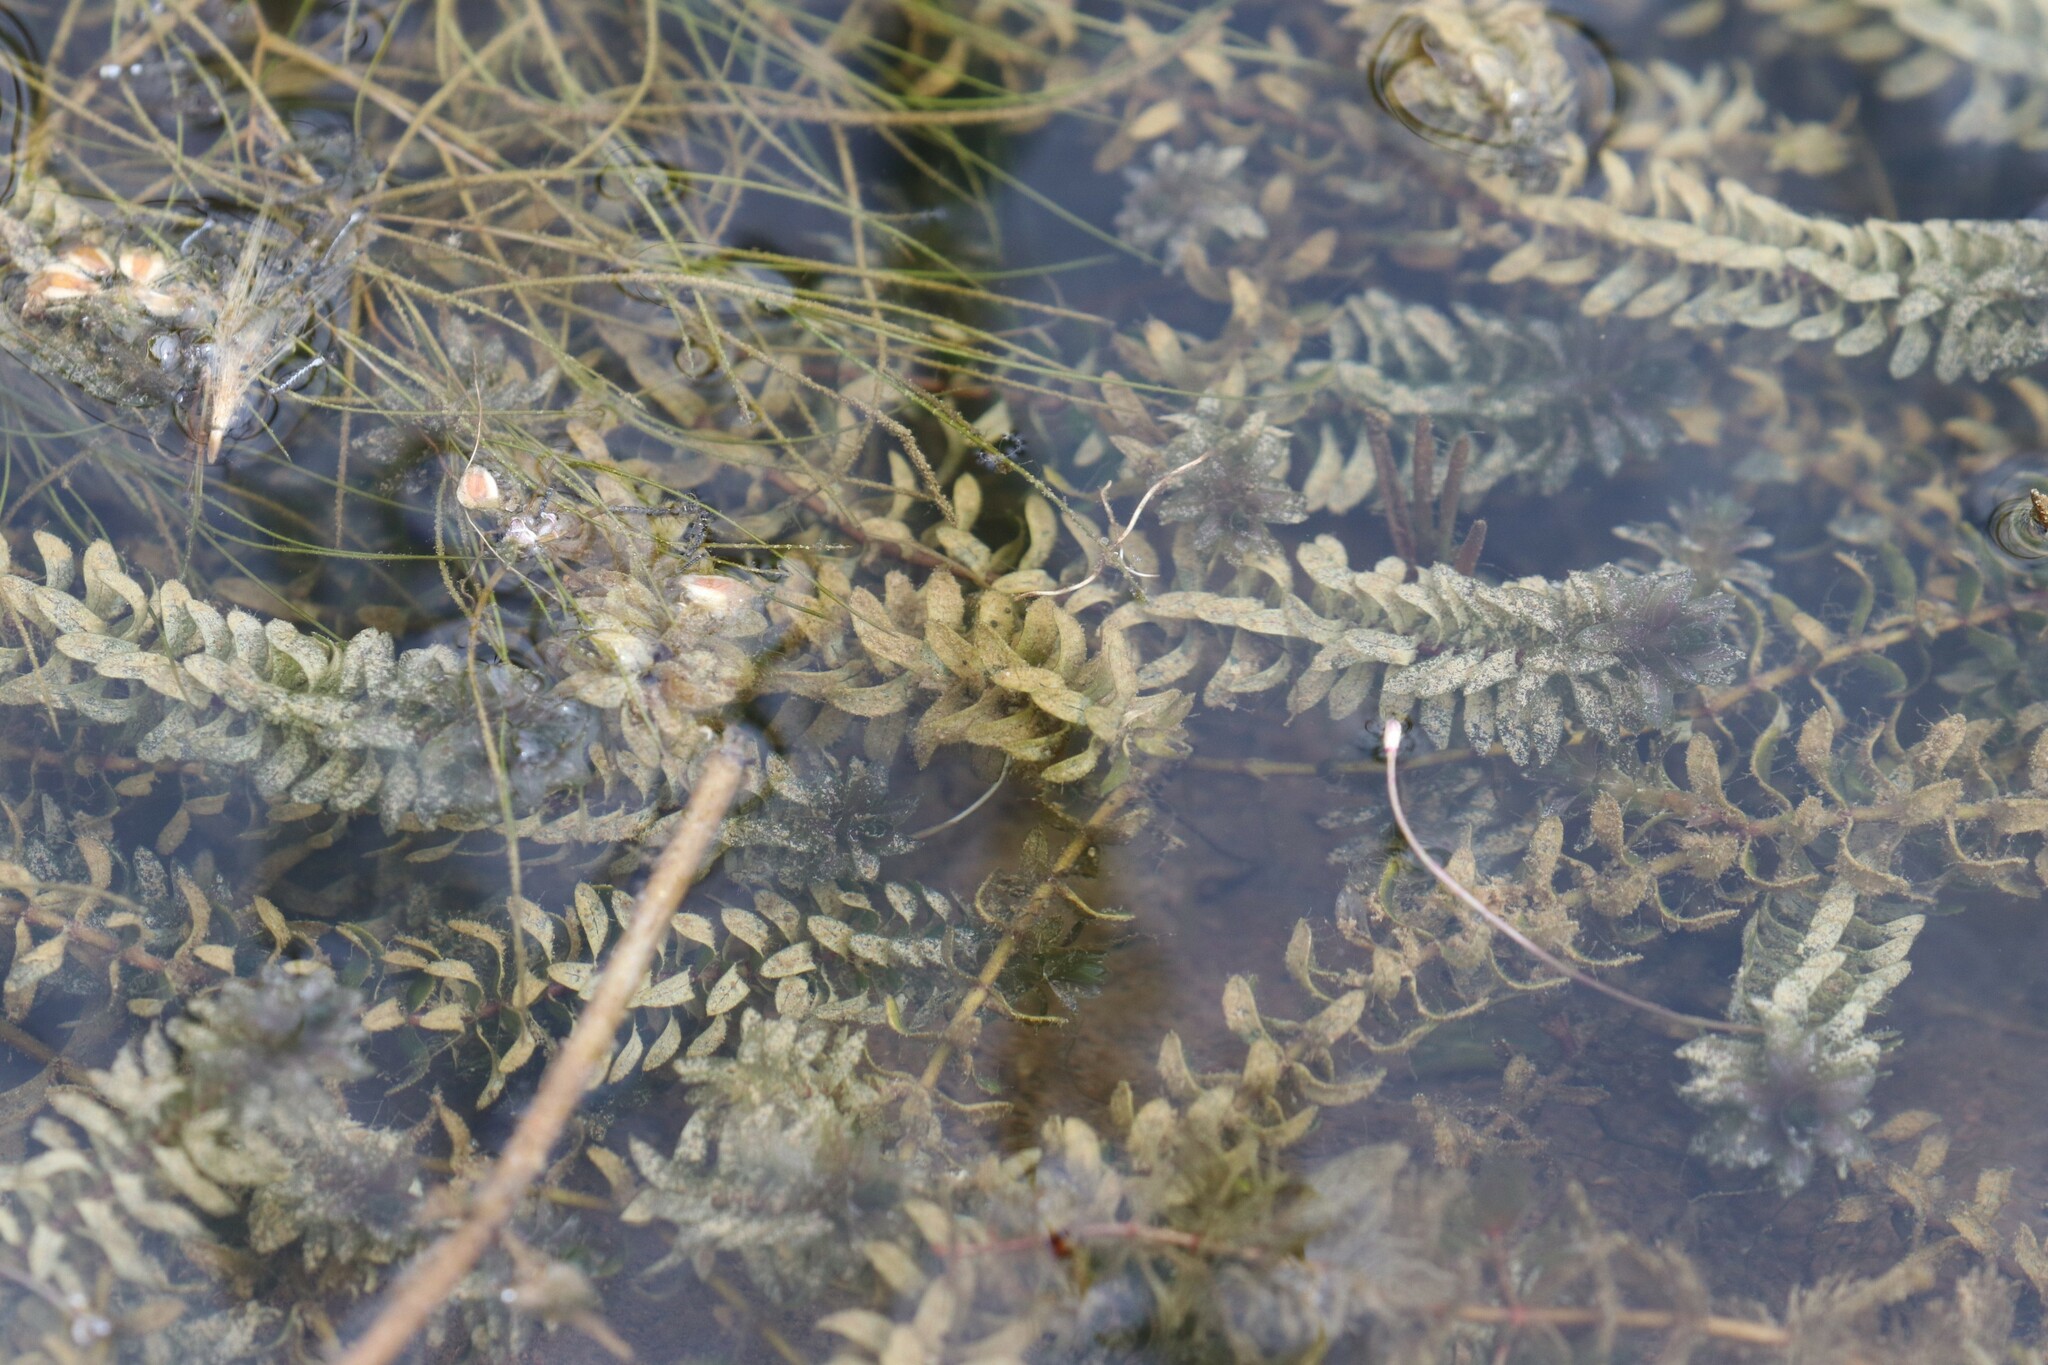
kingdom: Plantae
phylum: Tracheophyta
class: Liliopsida
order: Alismatales
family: Hydrocharitaceae
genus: Elodea
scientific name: Elodea canadensis
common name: Canadian waterweed
